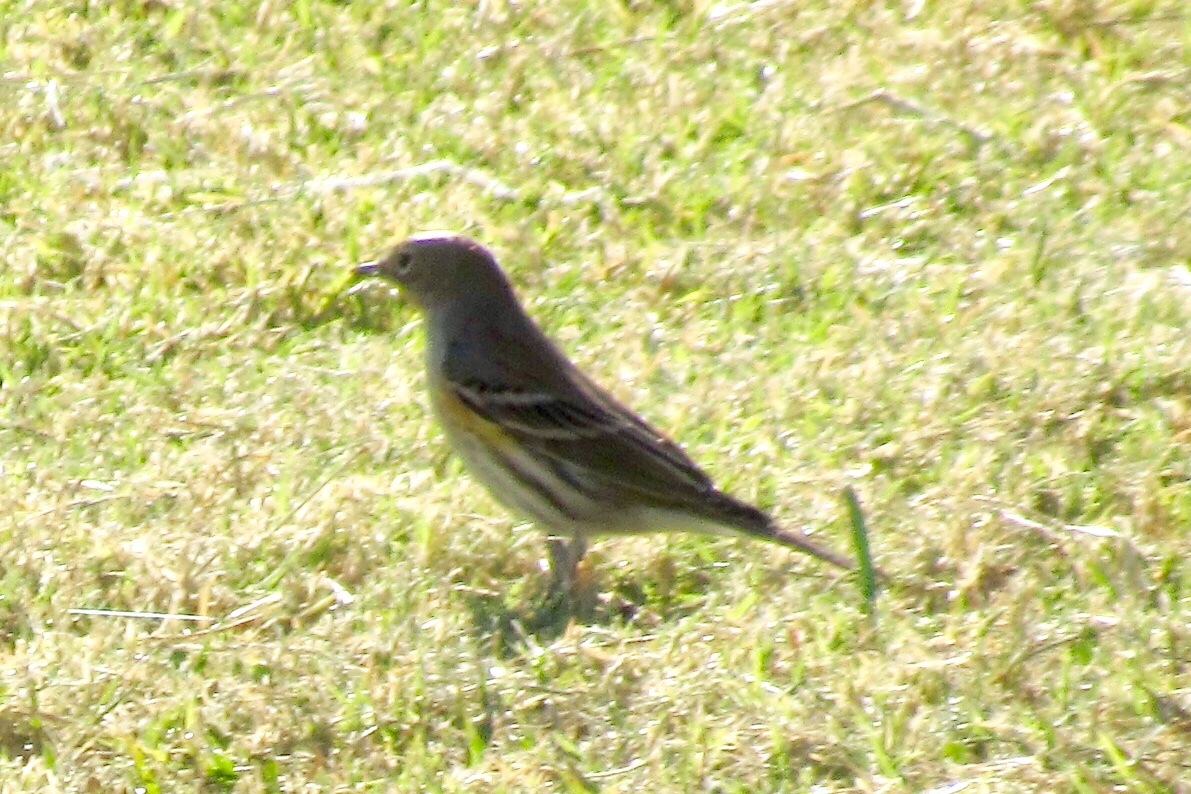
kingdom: Animalia
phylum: Chordata
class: Aves
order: Passeriformes
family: Parulidae
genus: Setophaga
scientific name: Setophaga coronata
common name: Myrtle warbler
